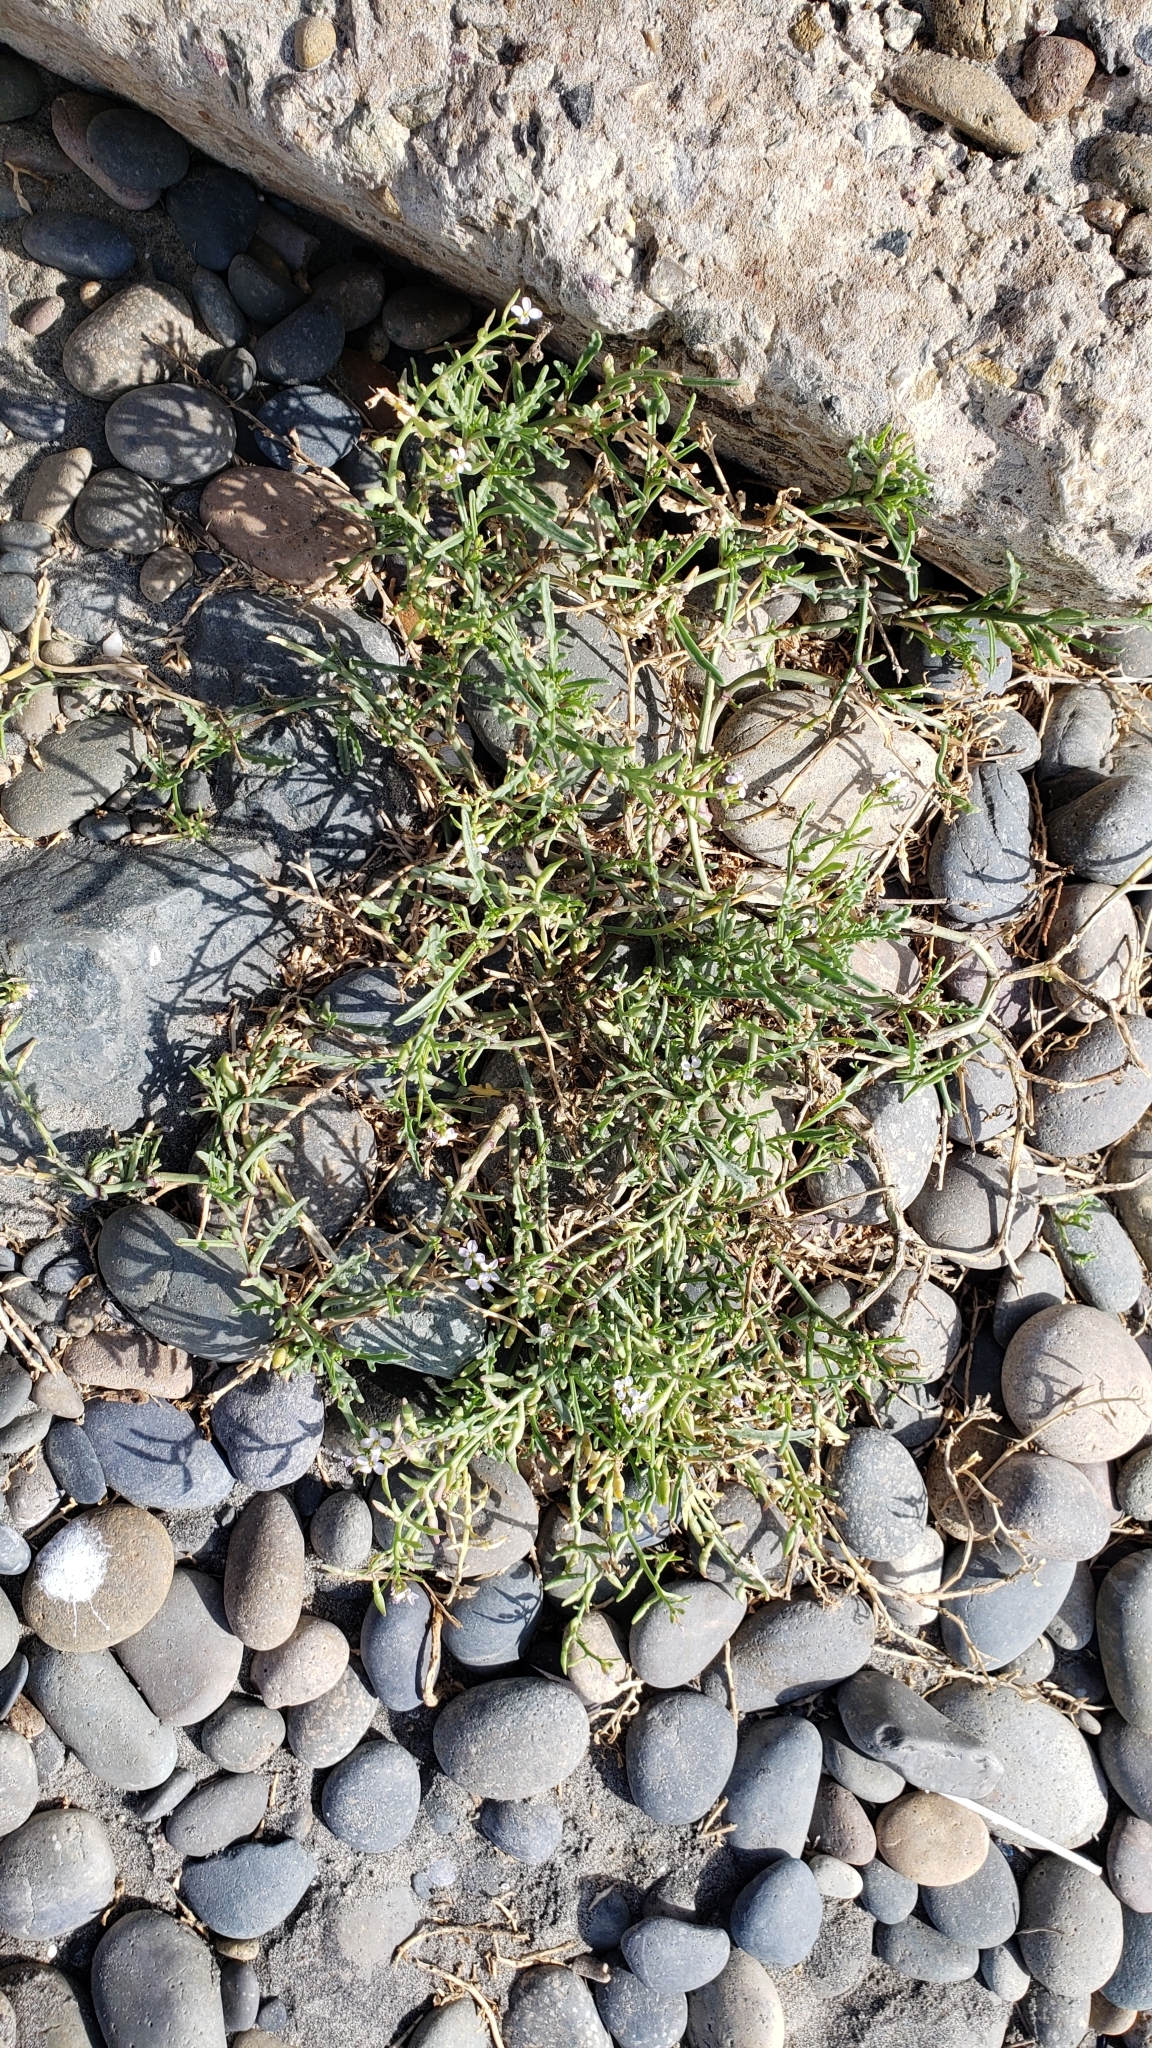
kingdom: Plantae
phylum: Tracheophyta
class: Magnoliopsida
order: Brassicales
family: Brassicaceae
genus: Cakile
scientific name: Cakile maritima
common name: Sea rocket
